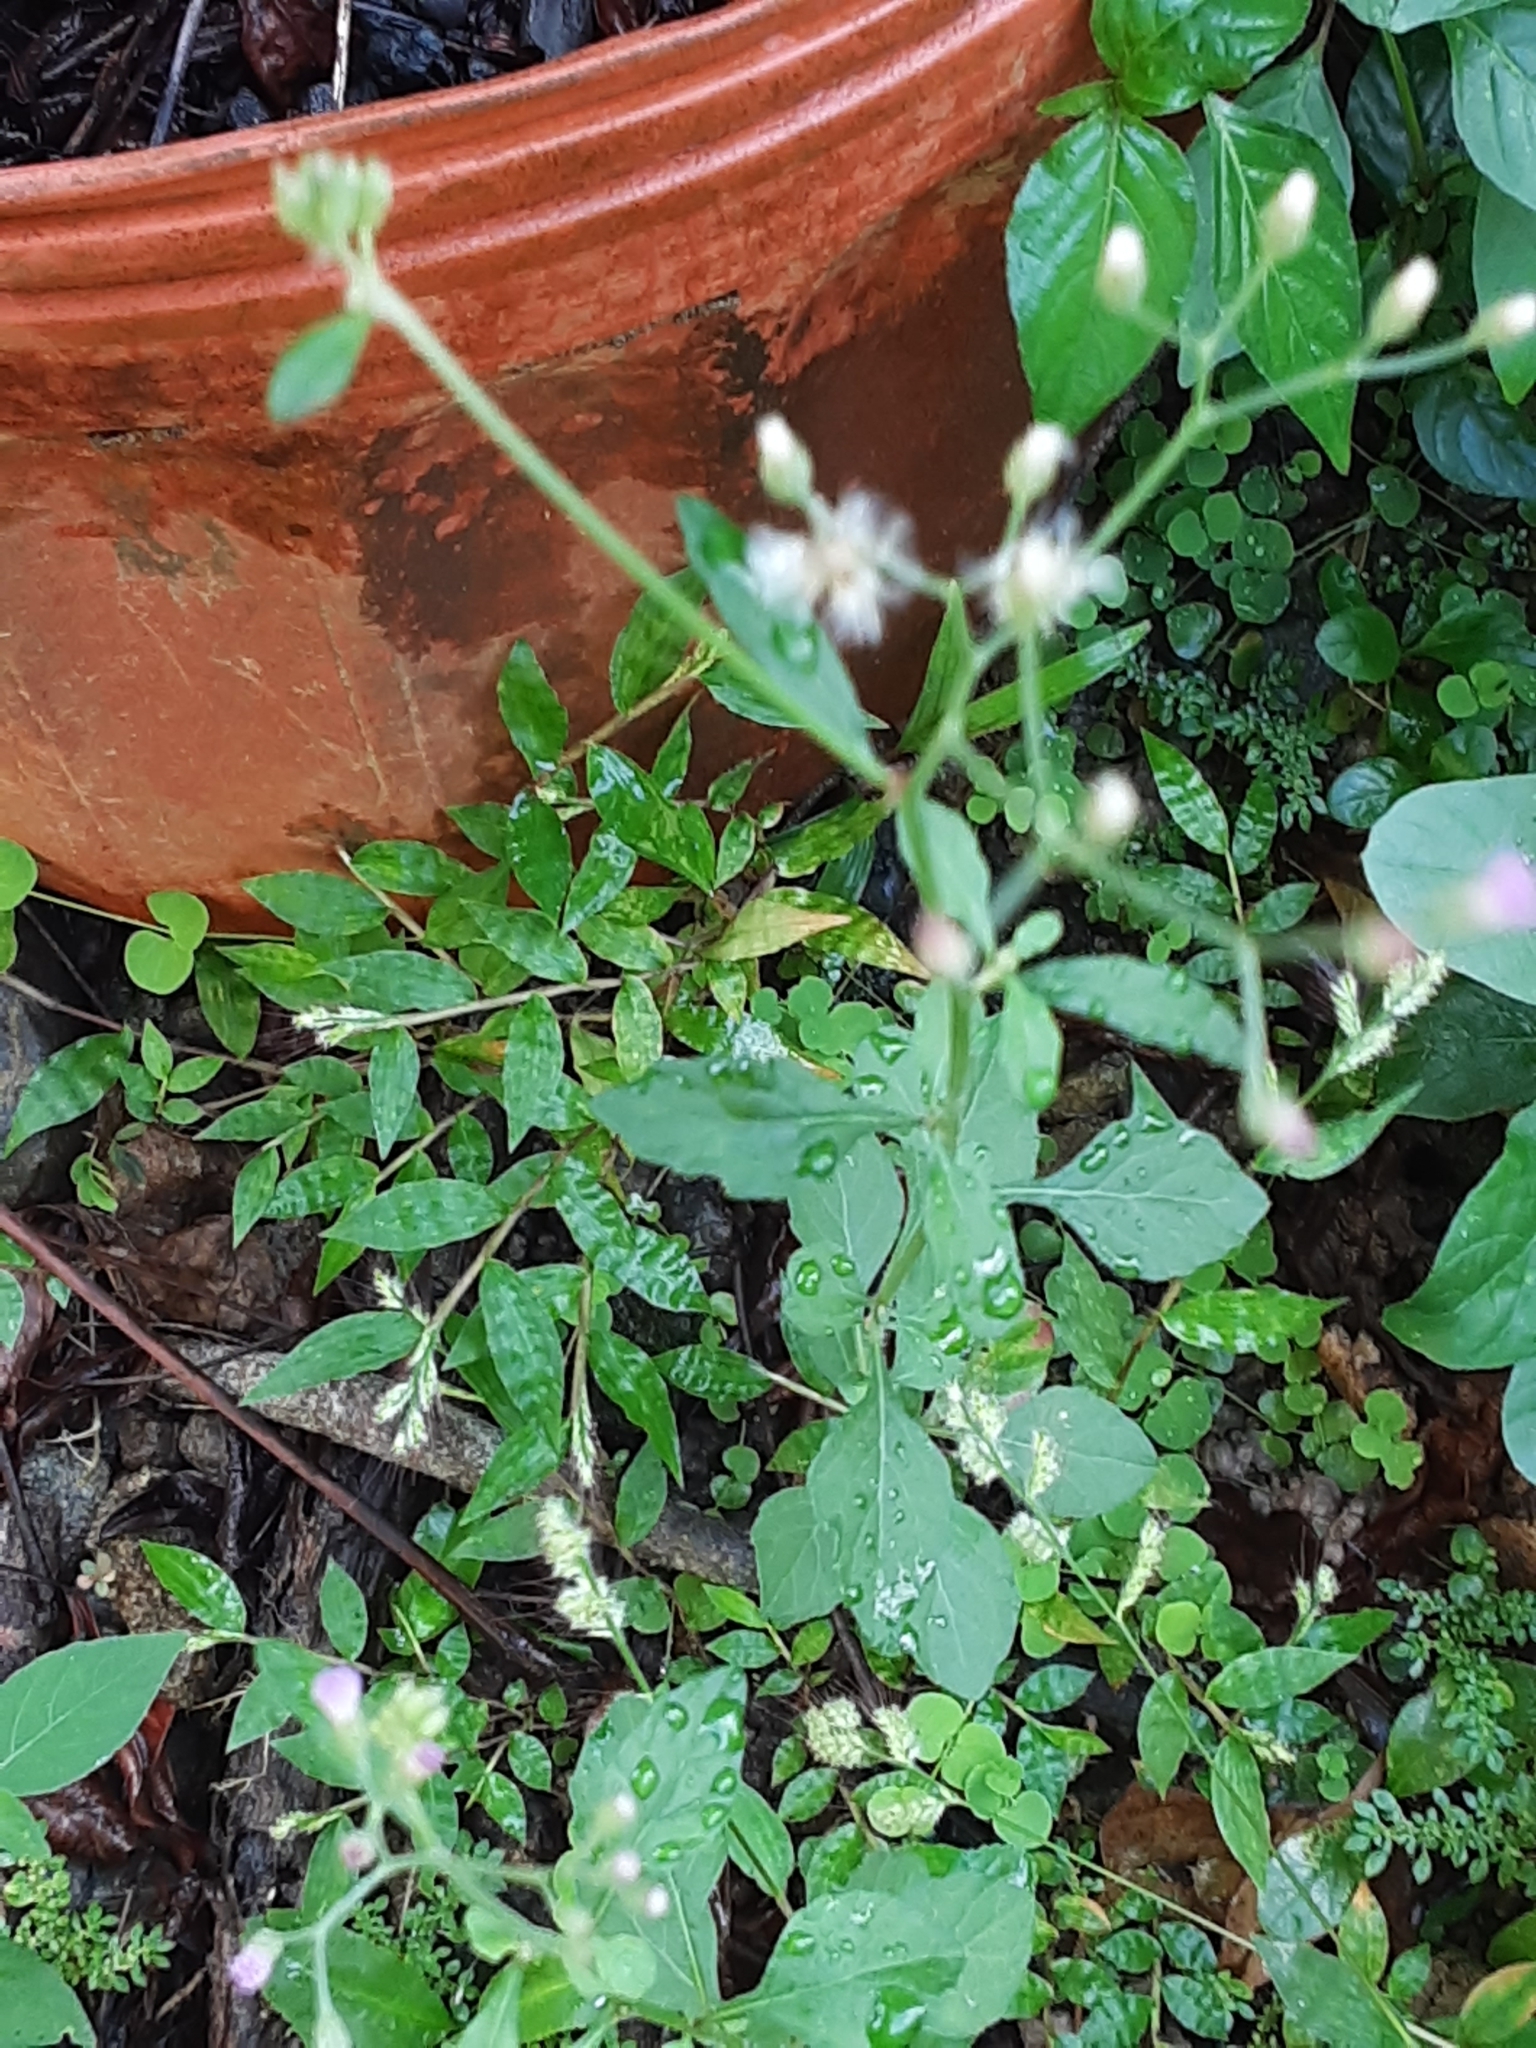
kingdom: Plantae
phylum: Tracheophyta
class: Magnoliopsida
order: Asterales
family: Asteraceae
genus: Cyanthillium
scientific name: Cyanthillium cinereum
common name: Little ironweed
